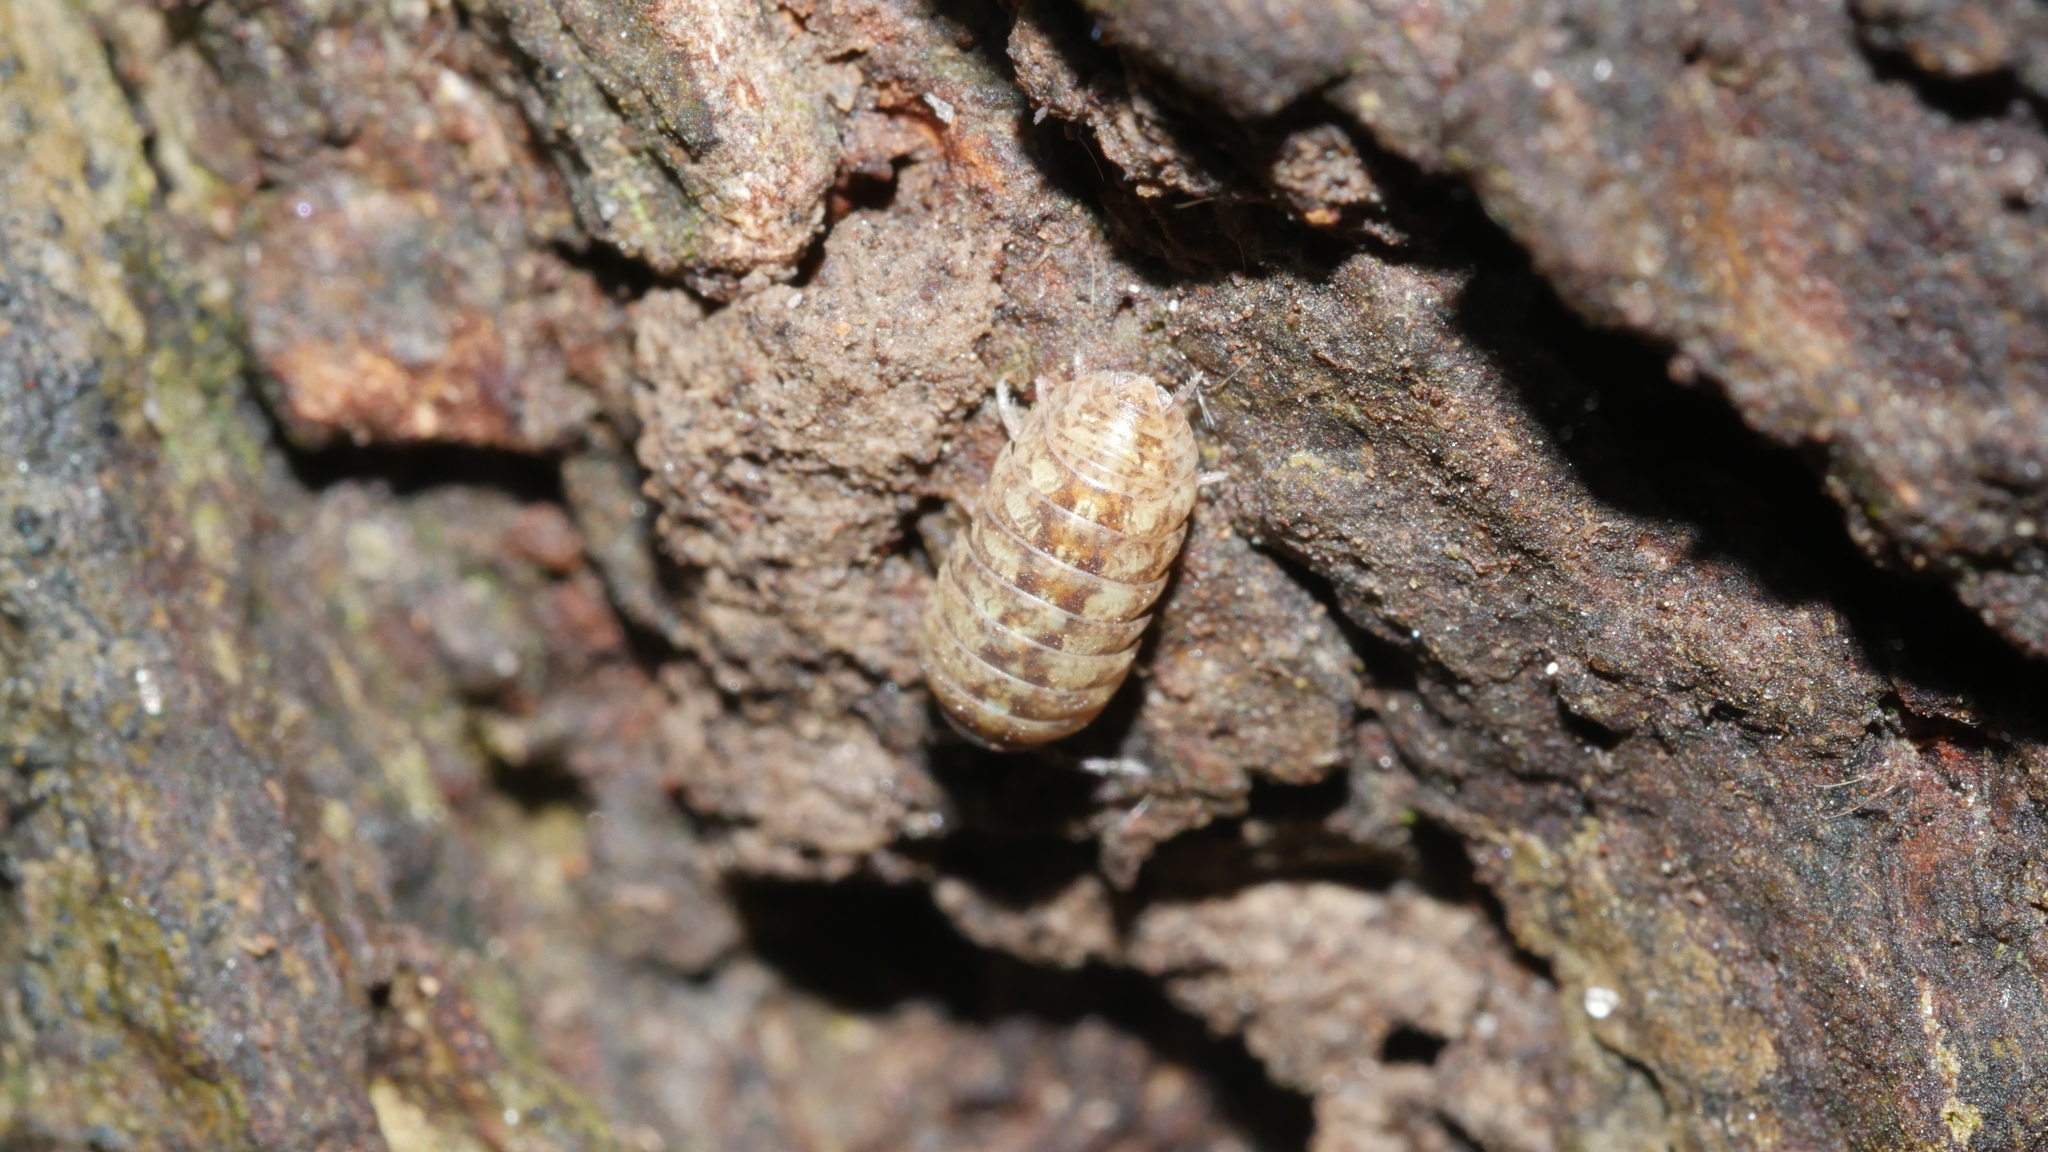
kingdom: Animalia
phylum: Arthropoda
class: Malacostraca
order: Isopoda
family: Armadillidiidae
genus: Armadillidium
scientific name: Armadillidium vulgare
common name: Common pill woodlouse
